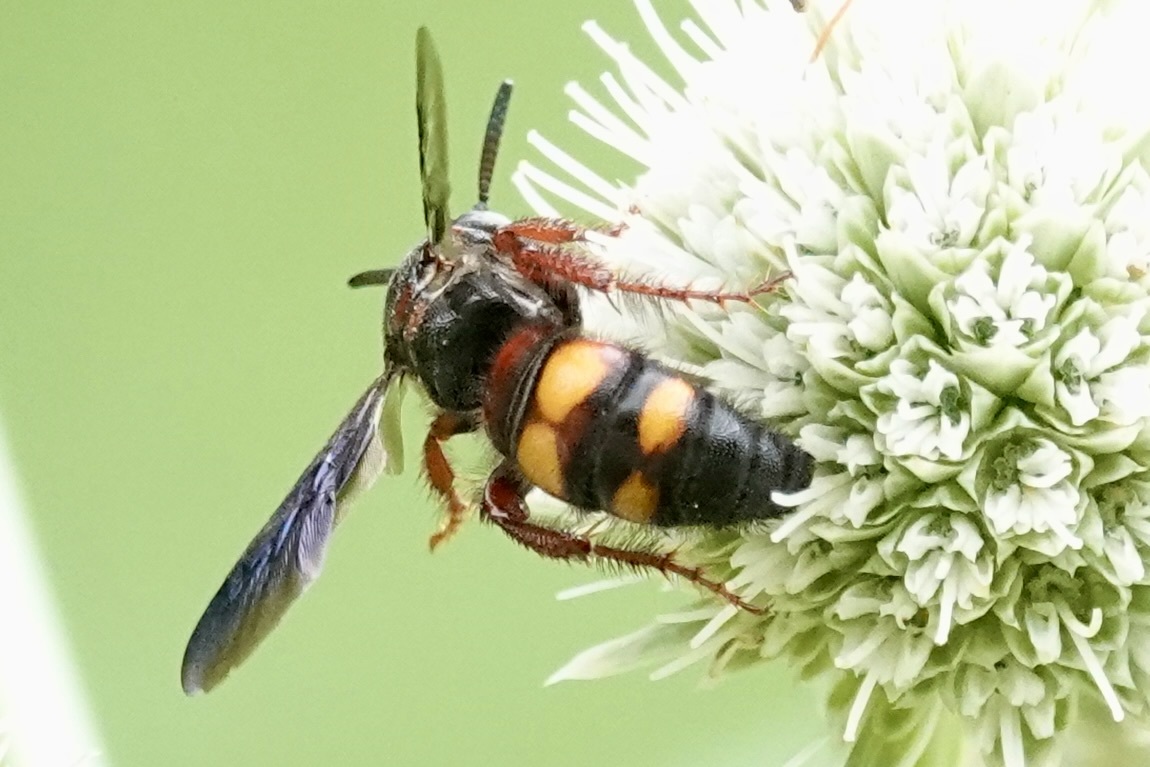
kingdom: Animalia
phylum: Arthropoda
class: Insecta
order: Hymenoptera
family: Scoliidae
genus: Scolia
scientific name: Scolia nobilitata
